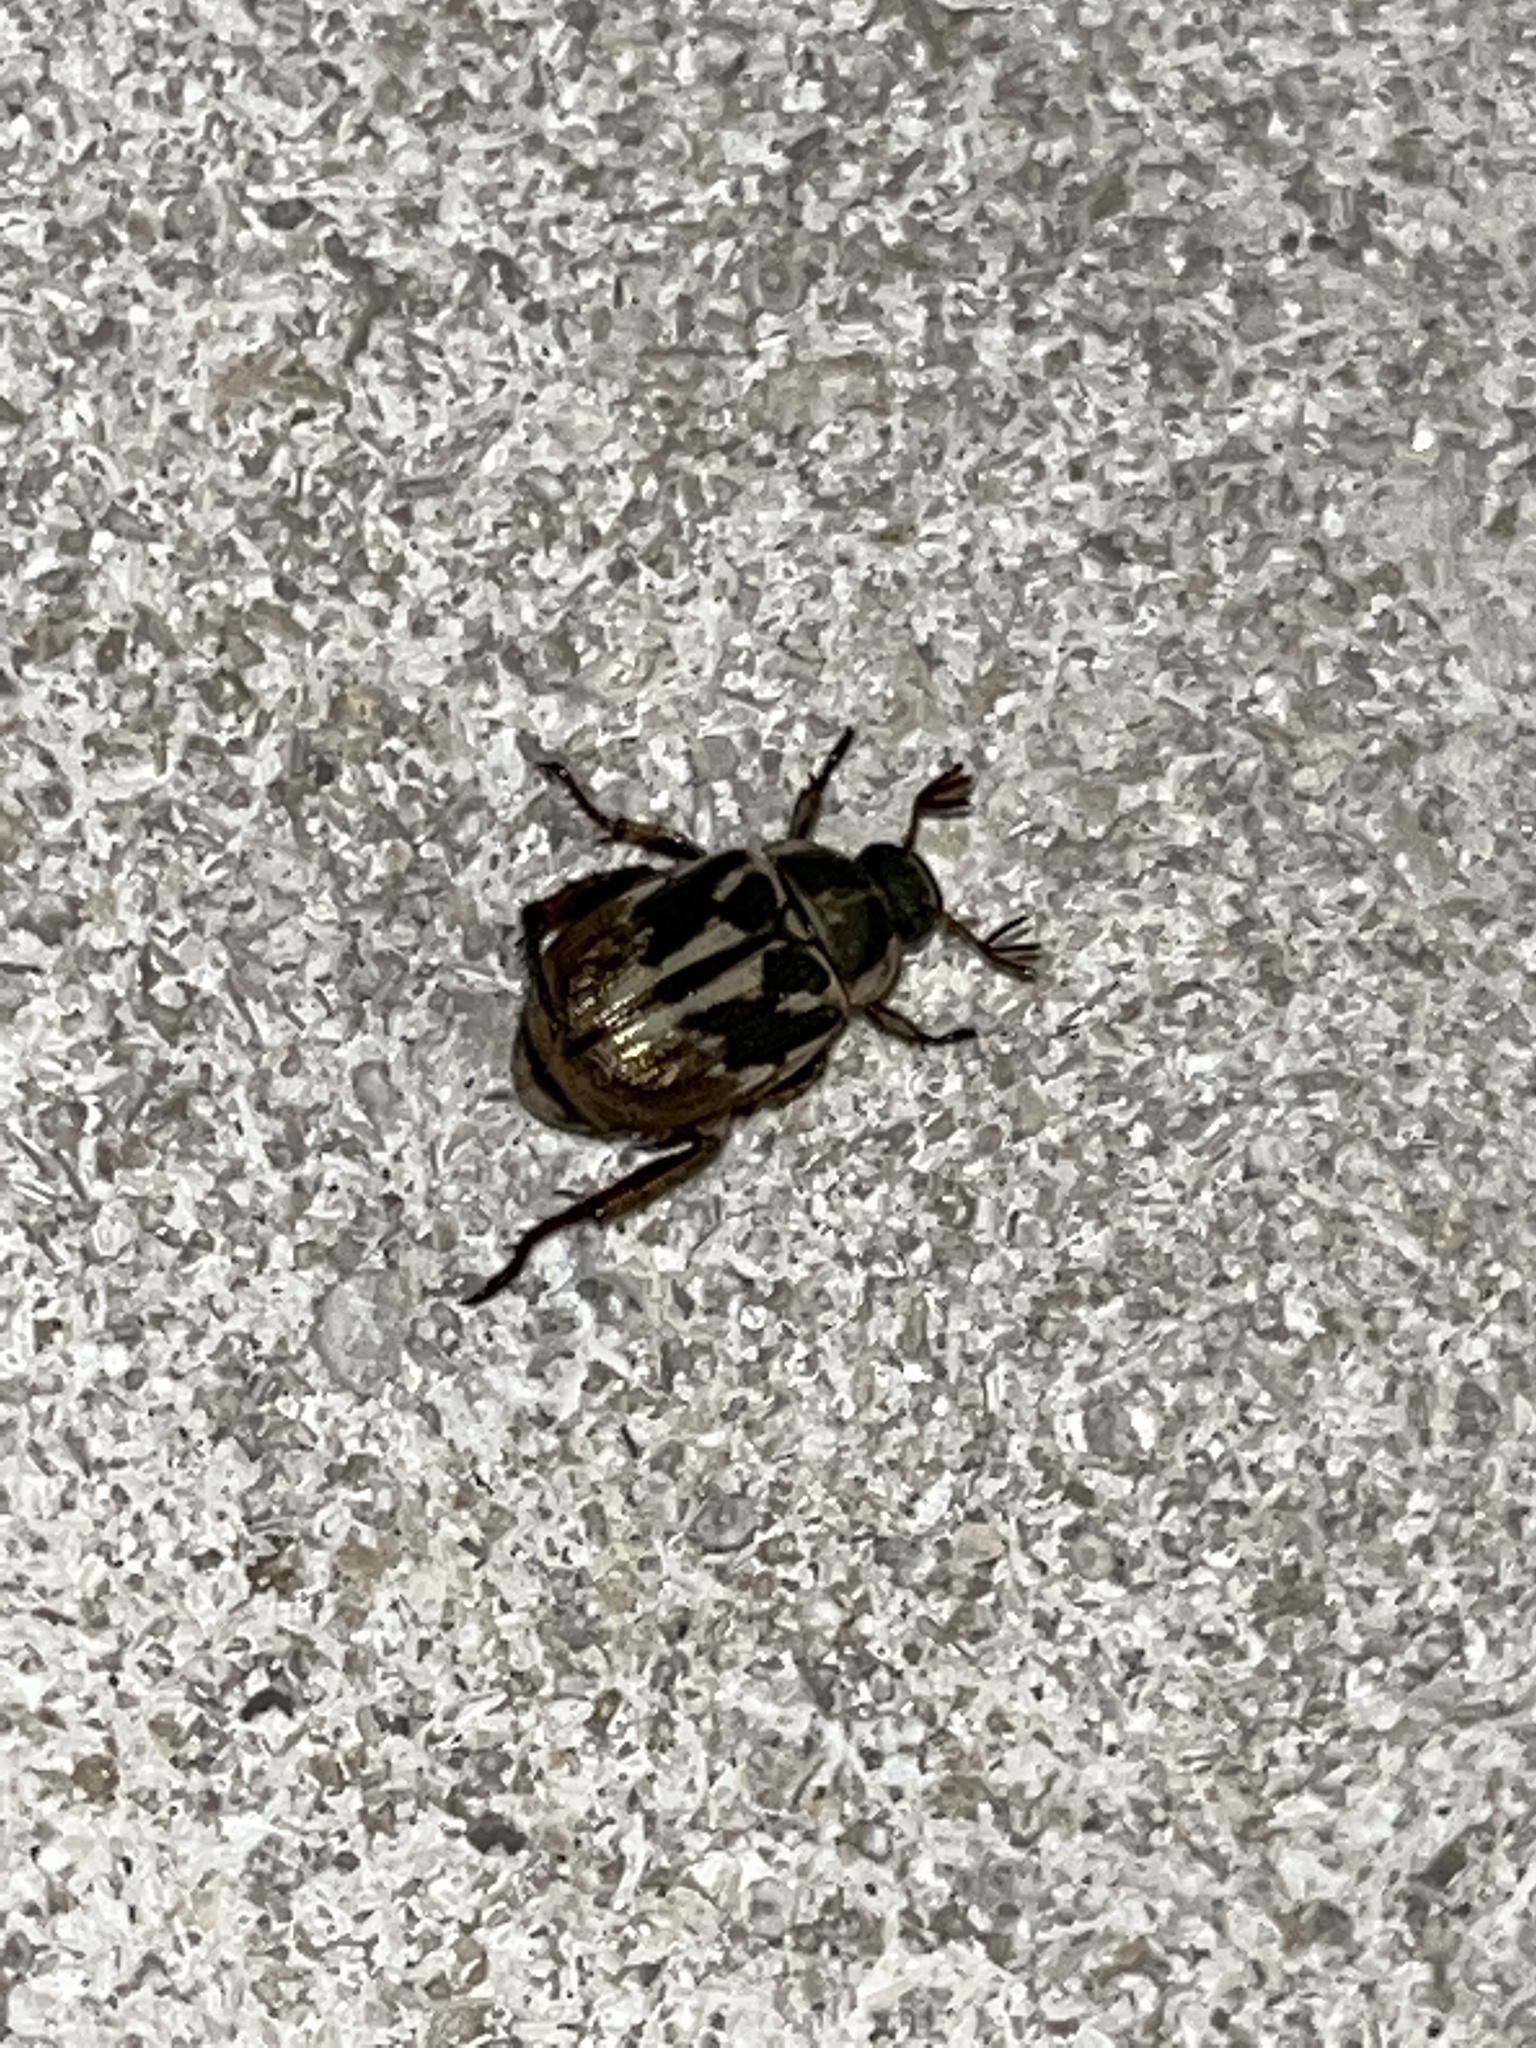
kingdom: Animalia
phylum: Arthropoda
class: Insecta
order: Coleoptera
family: Scarabaeidae
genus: Exomala
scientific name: Exomala orientalis
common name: Oriental beetle
